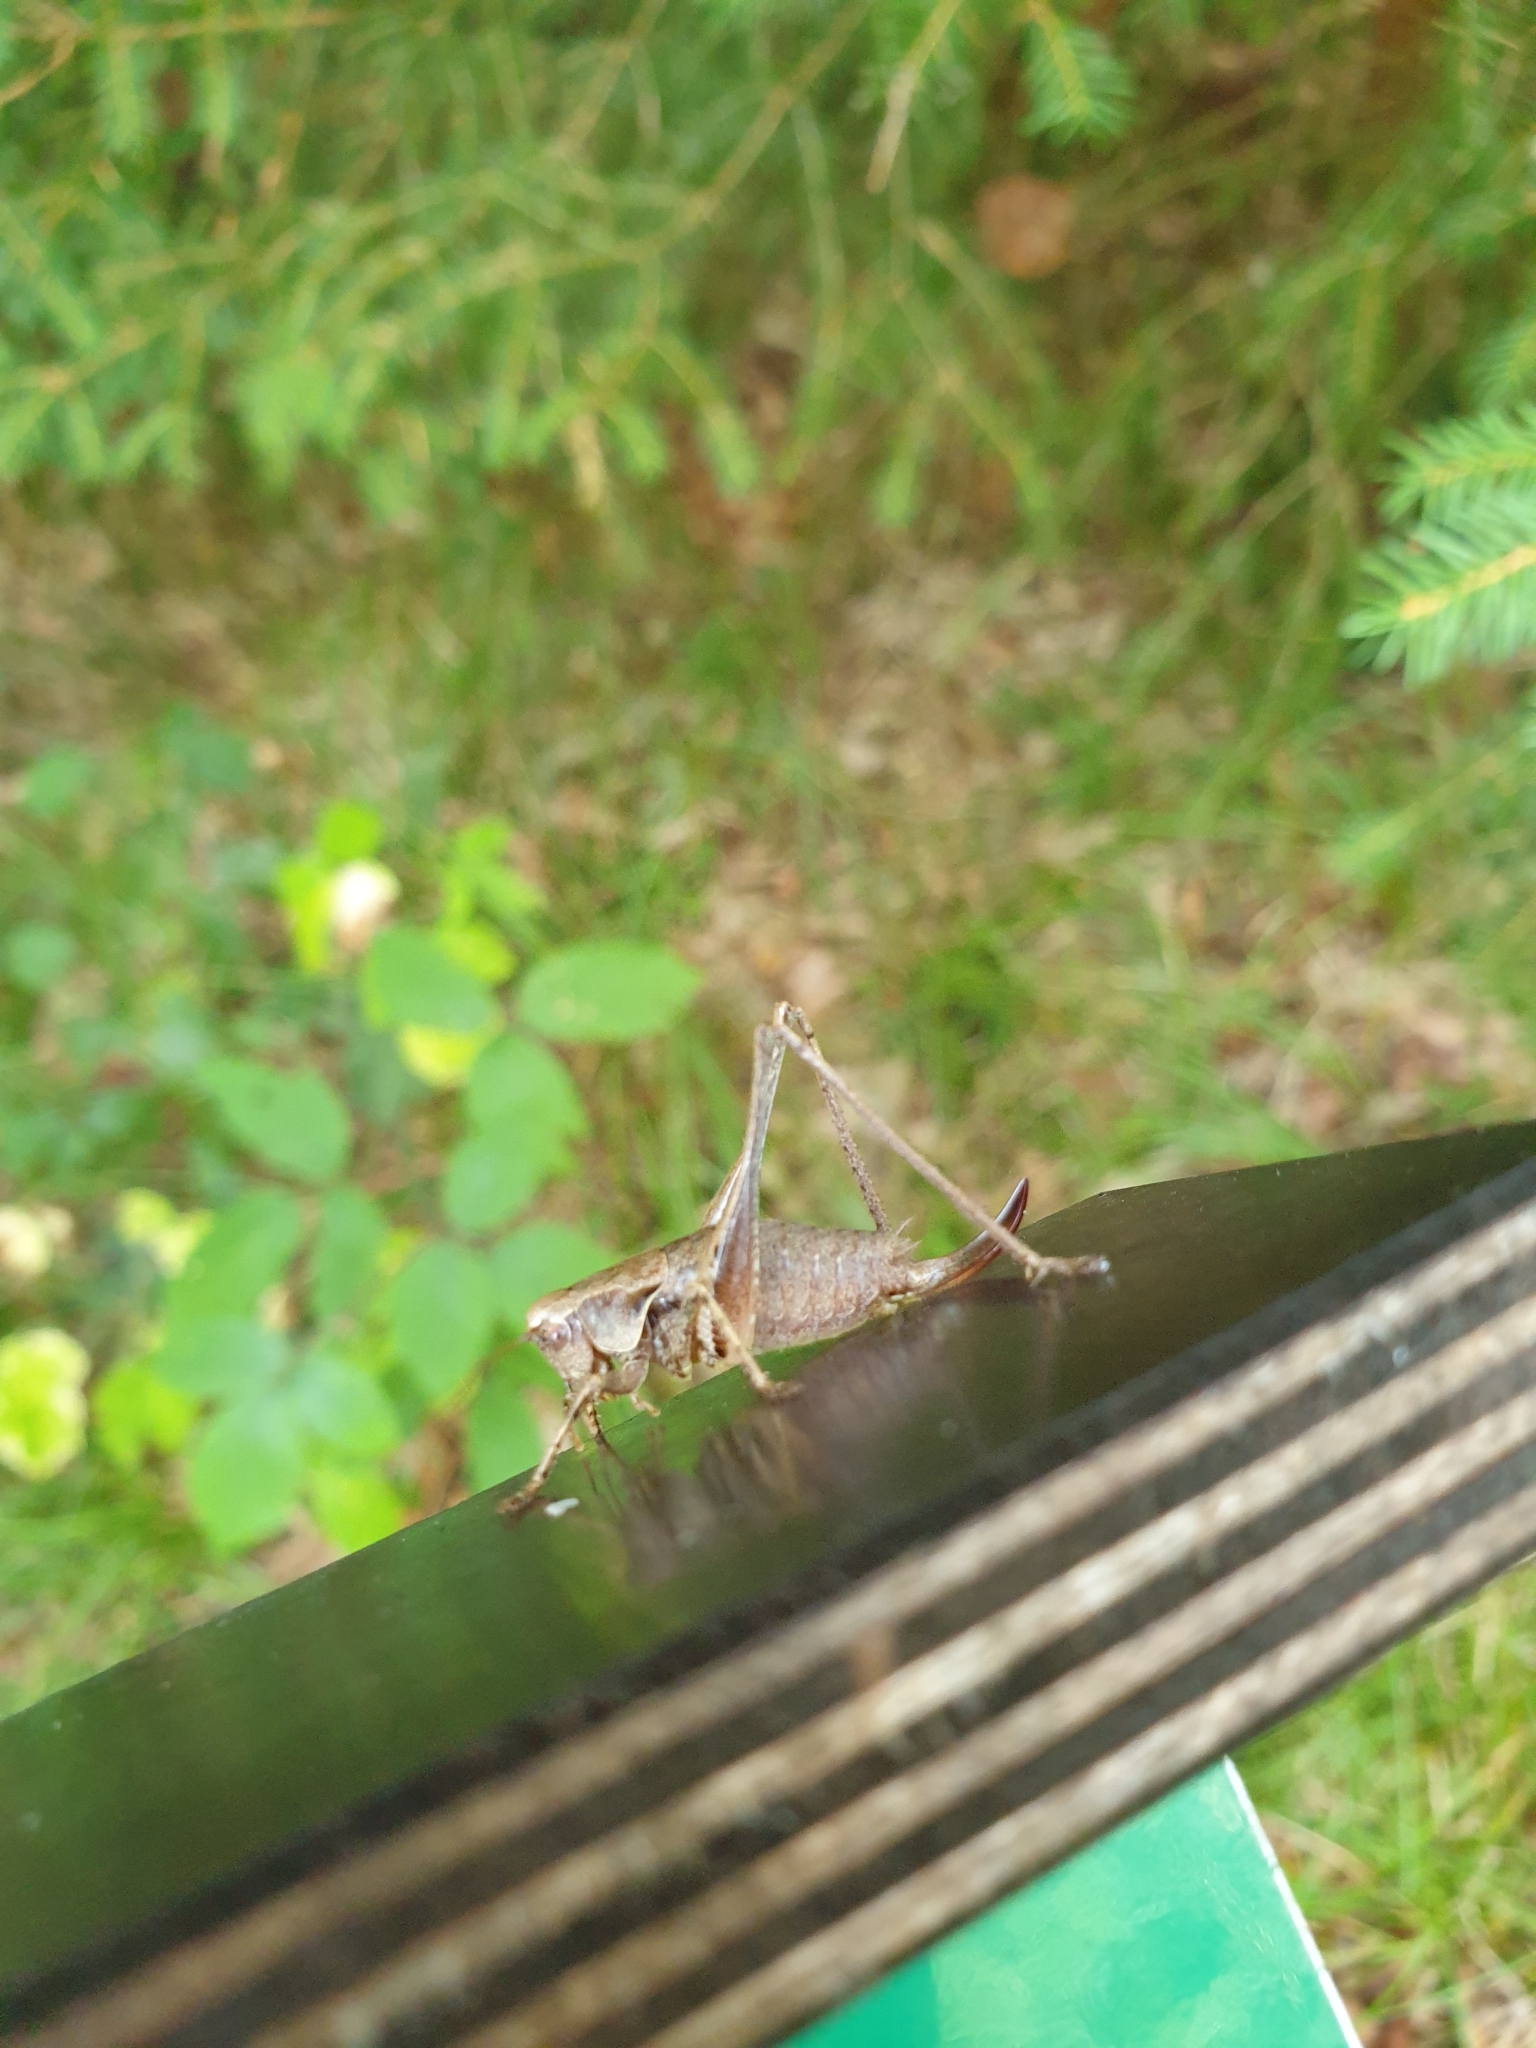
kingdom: Animalia
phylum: Arthropoda
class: Insecta
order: Orthoptera
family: Tettigoniidae
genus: Pholidoptera
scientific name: Pholidoptera griseoaptera
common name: Dark bush-cricket
